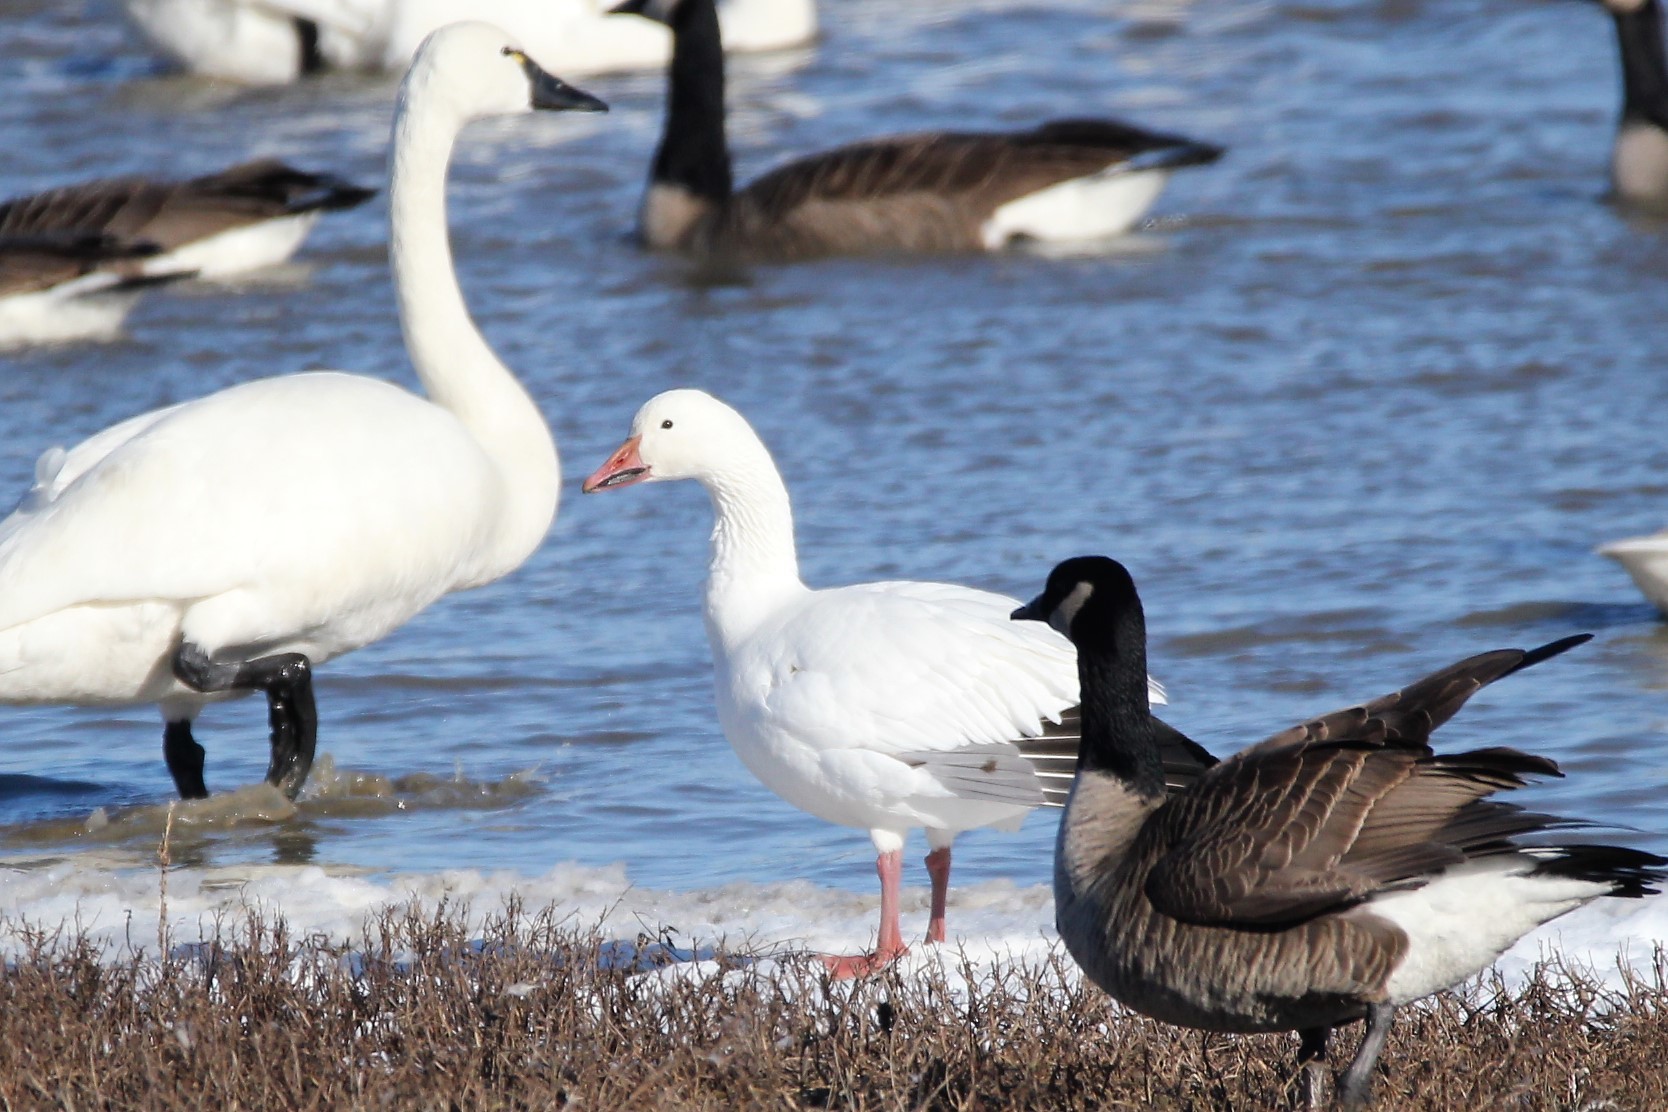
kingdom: Animalia
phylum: Chordata
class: Aves
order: Anseriformes
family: Anatidae
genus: Anser
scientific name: Anser caerulescens
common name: Snow goose
